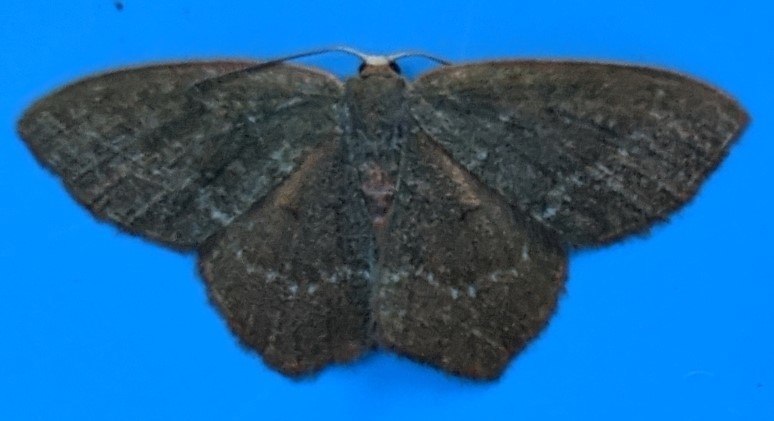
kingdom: Animalia
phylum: Arthropoda
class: Insecta
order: Lepidoptera
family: Geometridae
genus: Thalera
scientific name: Thalera pistasciaria
